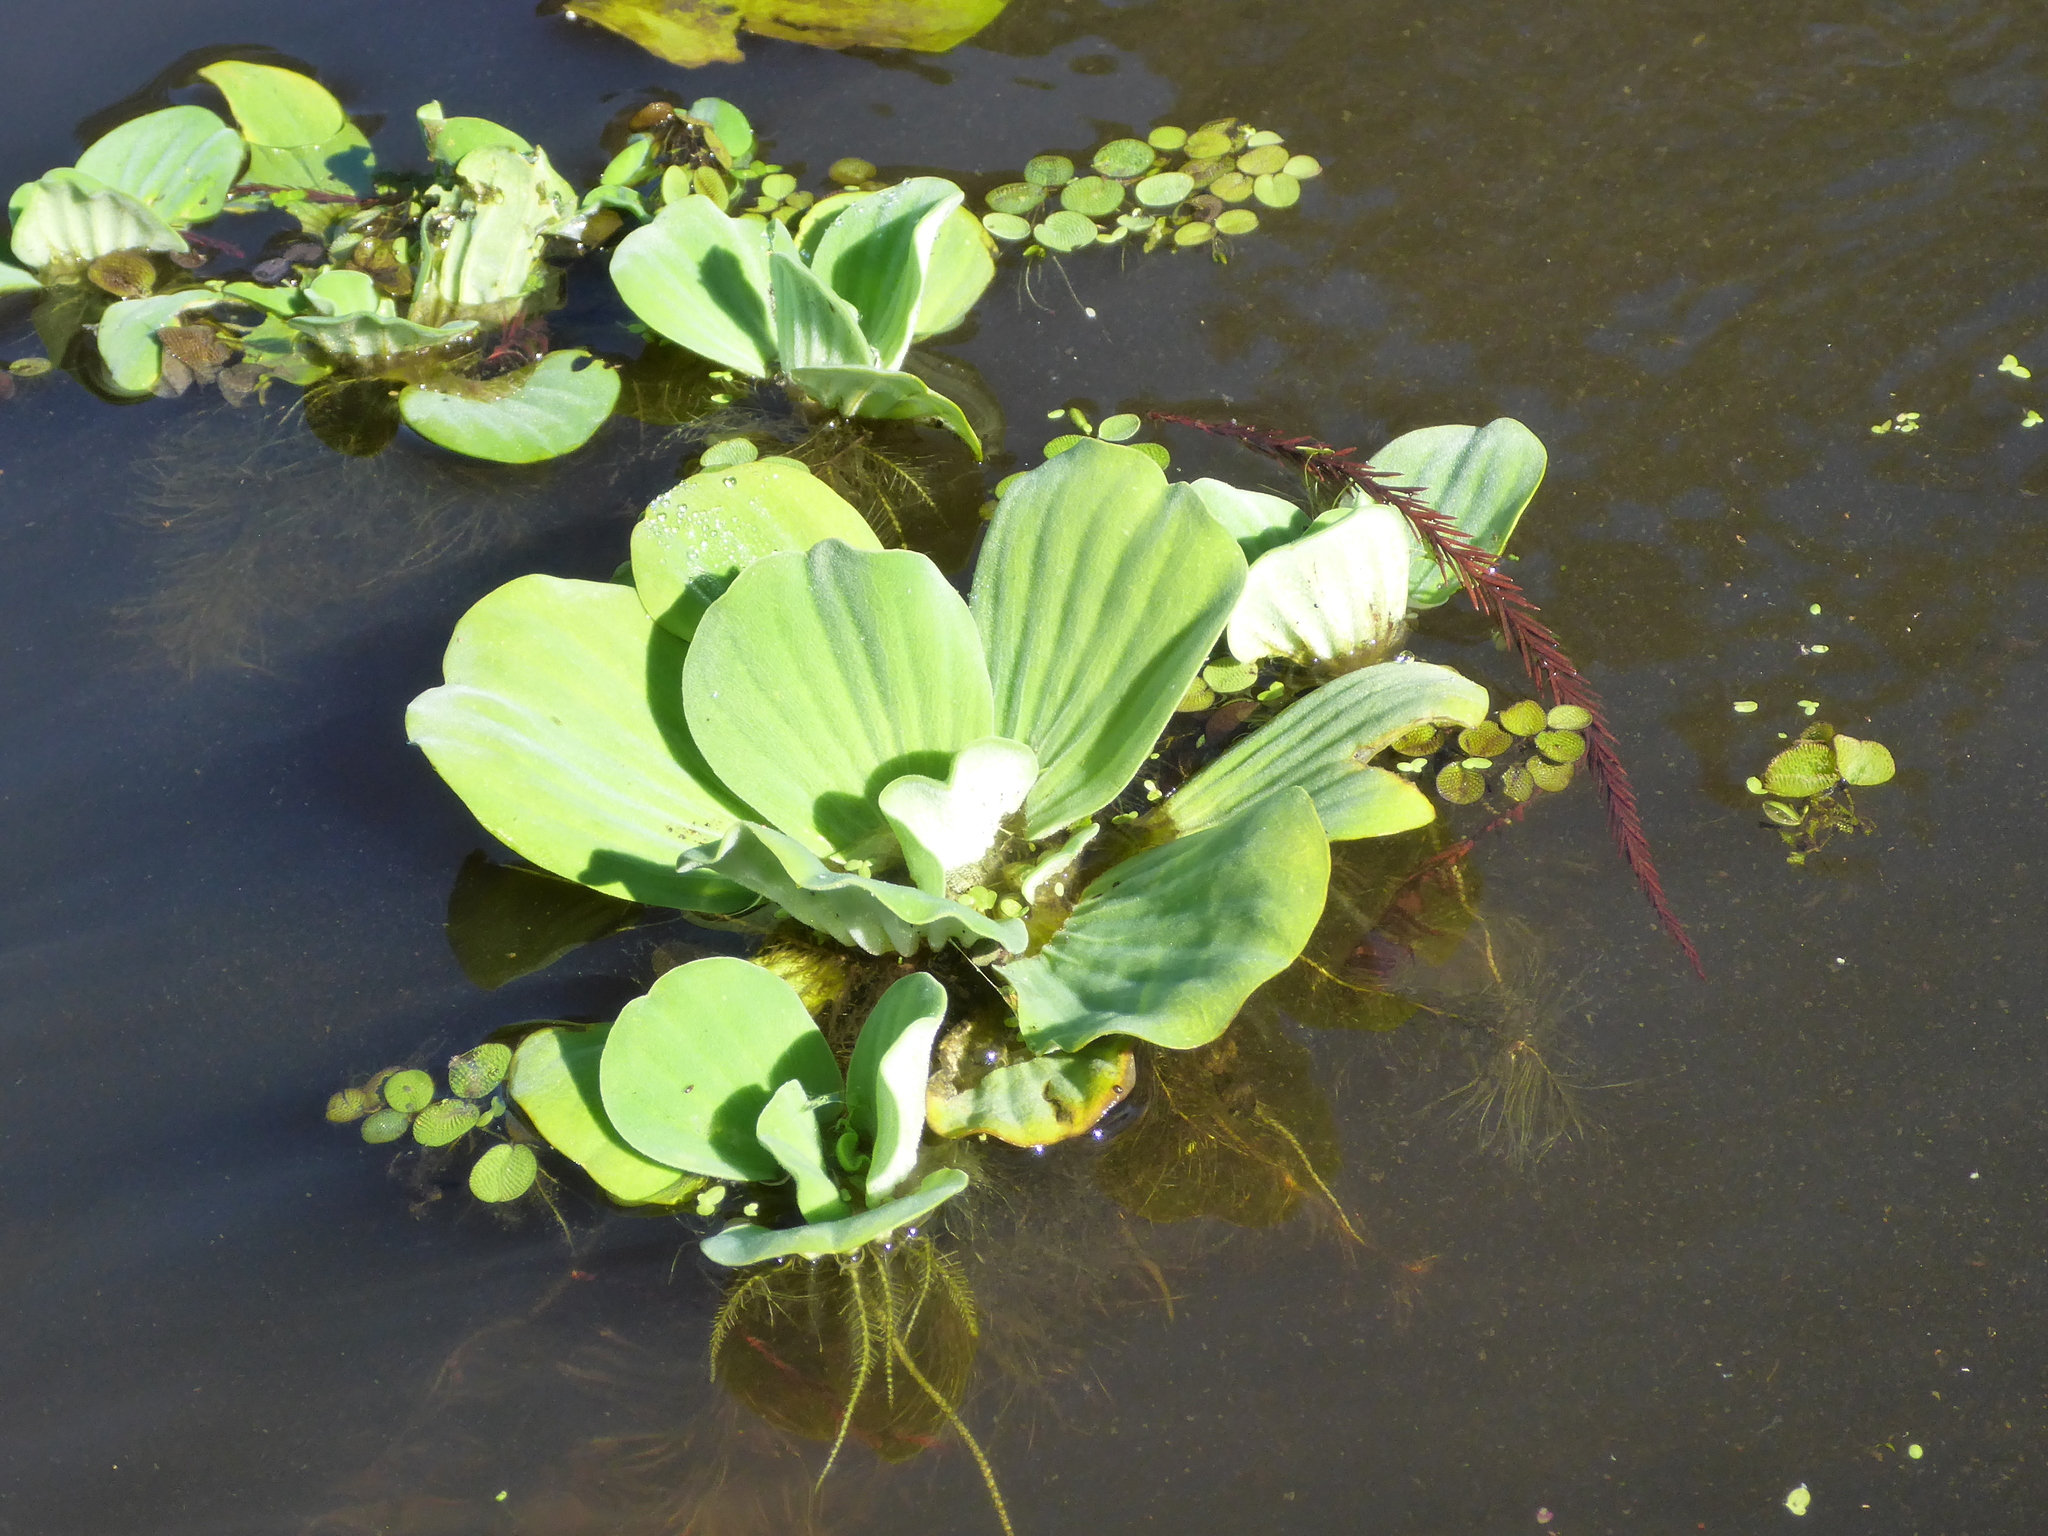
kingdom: Plantae
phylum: Tracheophyta
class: Liliopsida
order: Alismatales
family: Araceae
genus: Pistia
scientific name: Pistia stratiotes
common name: Water lettuce
